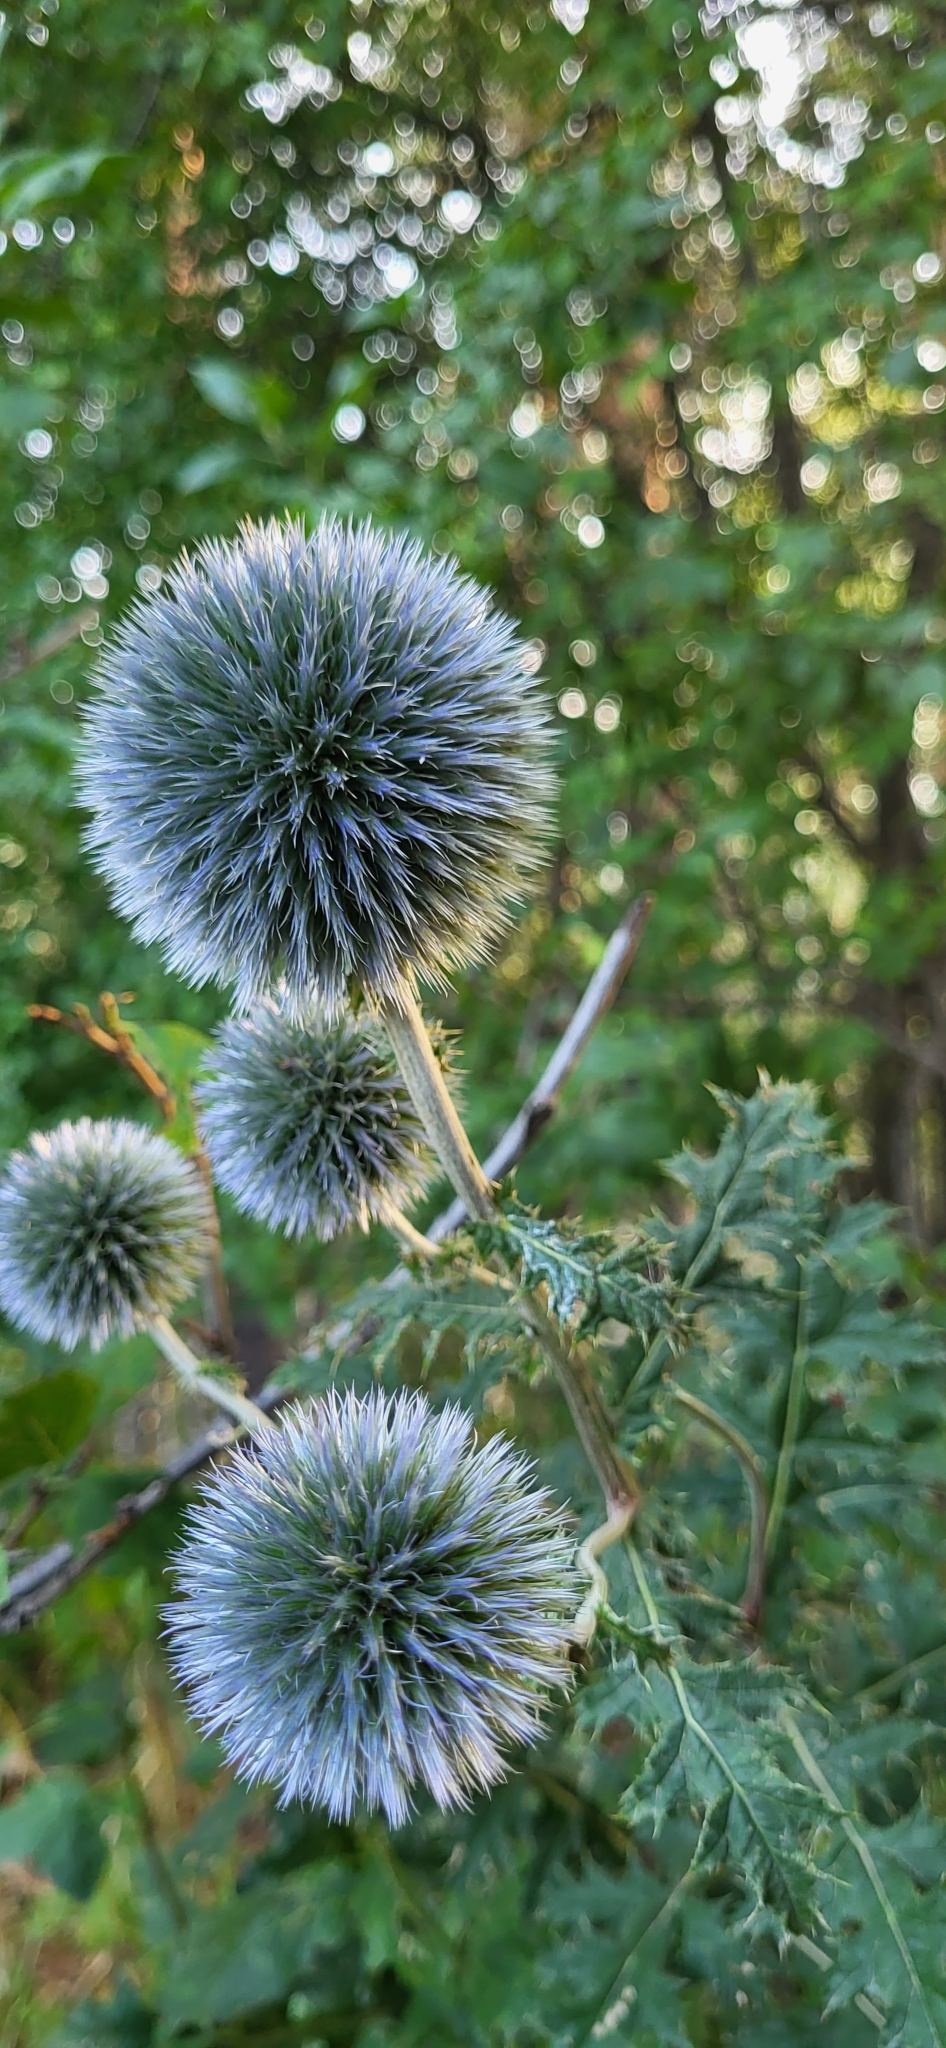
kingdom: Plantae
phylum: Tracheophyta
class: Magnoliopsida
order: Asterales
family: Asteraceae
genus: Echinops
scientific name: Echinops chantavicus
